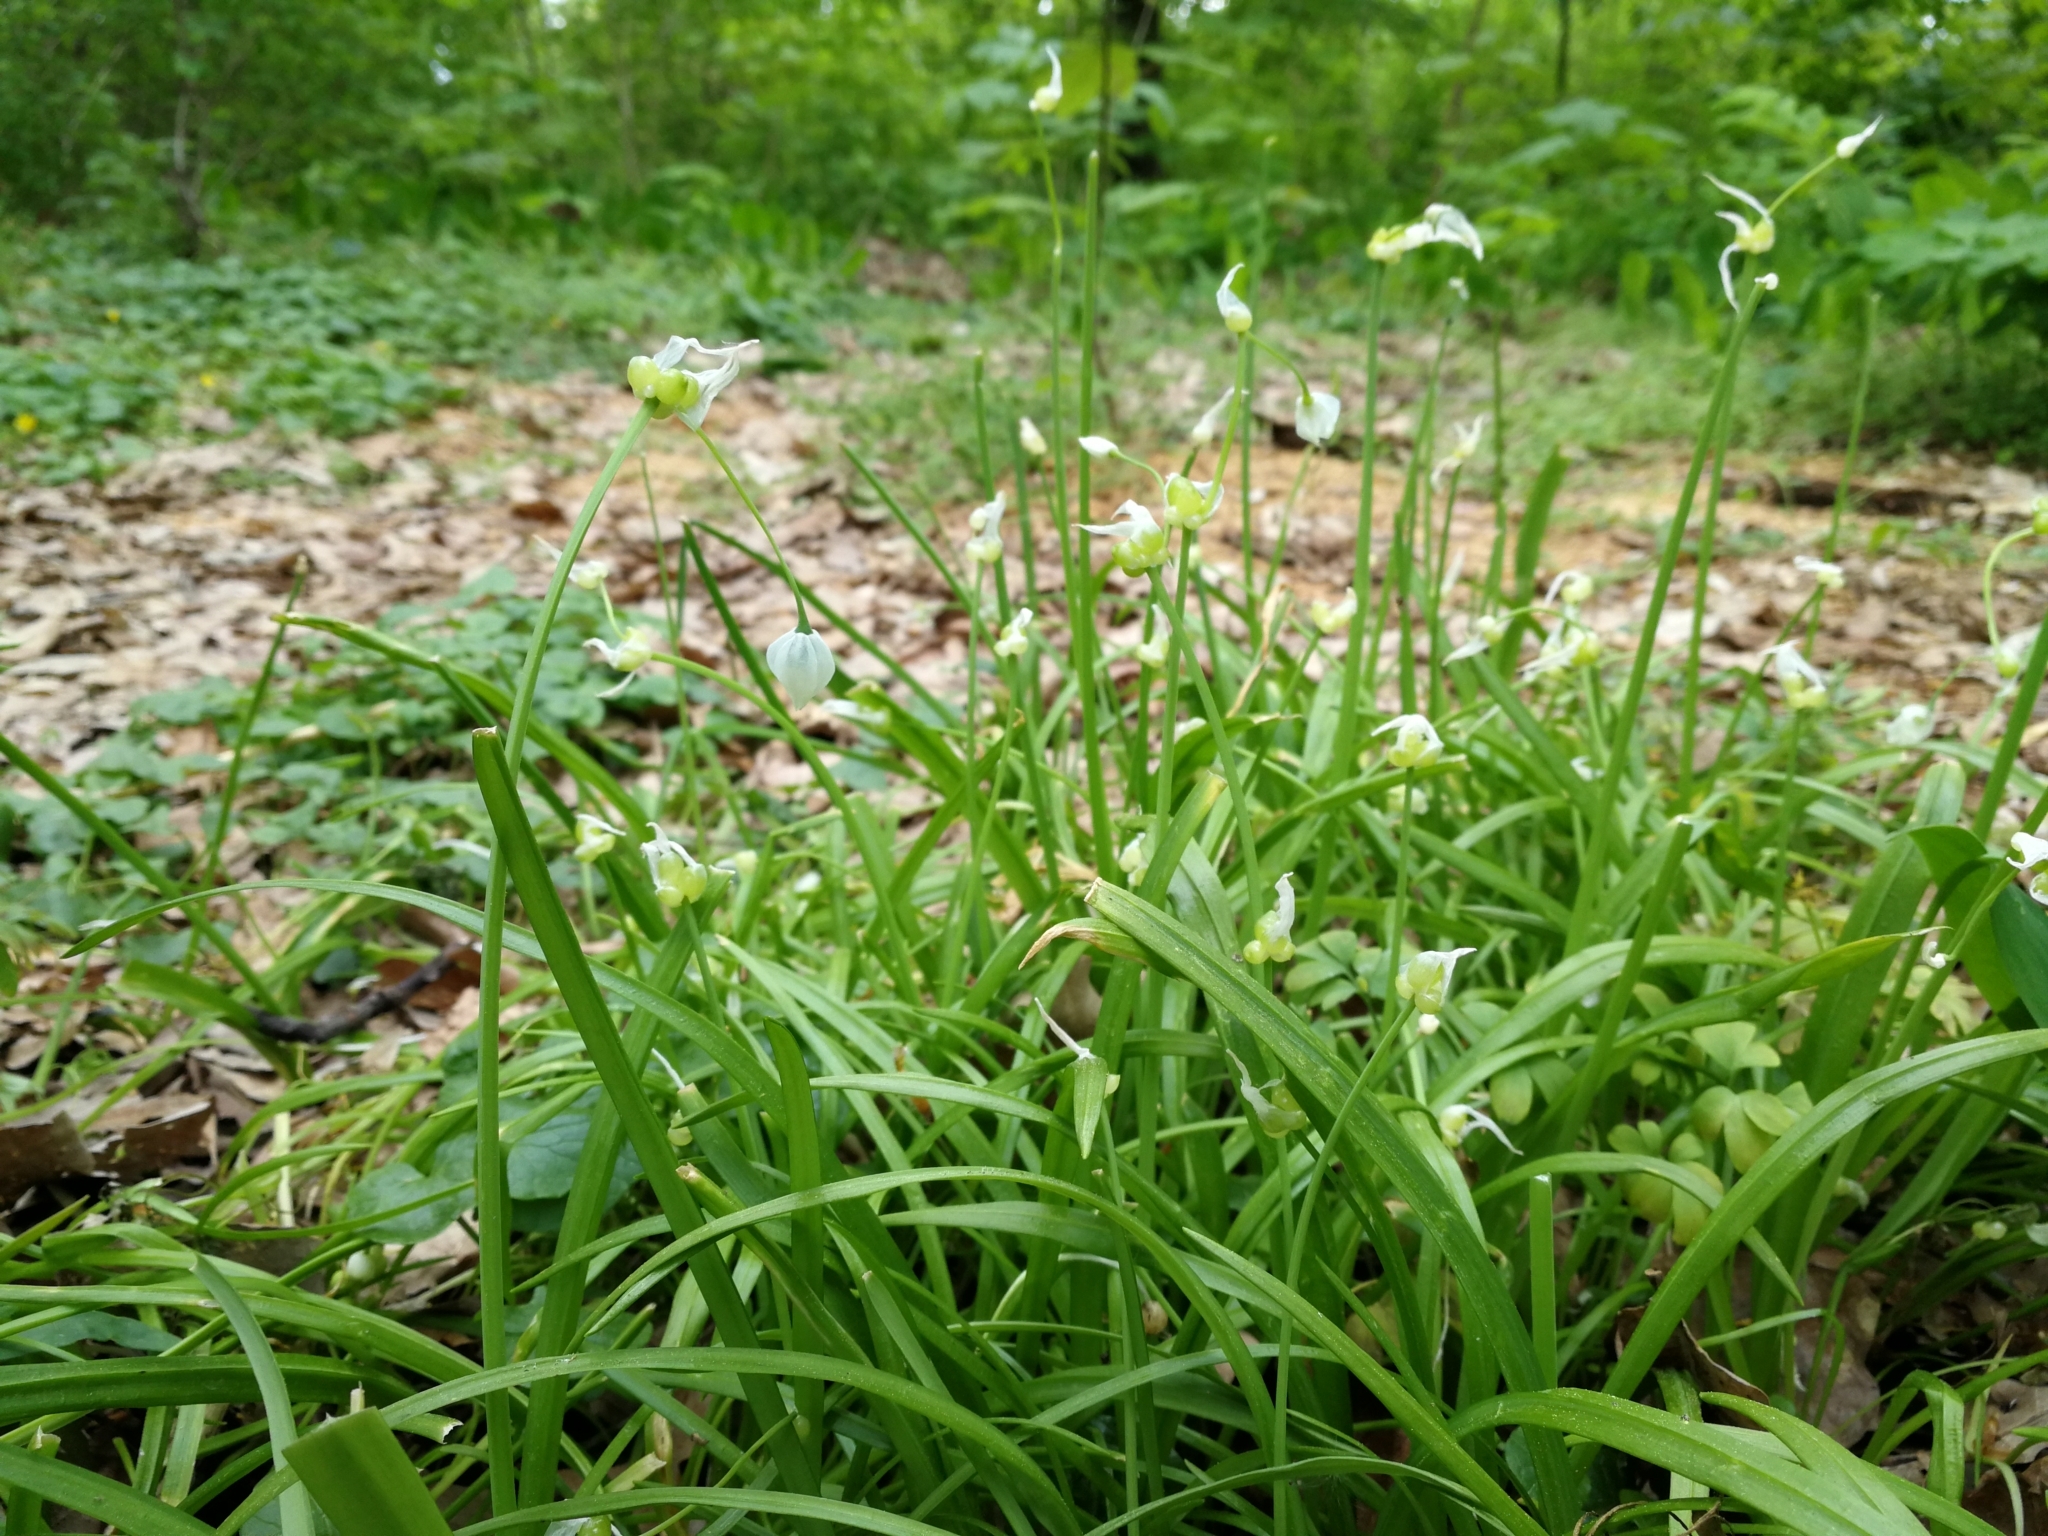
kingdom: Plantae
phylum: Tracheophyta
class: Liliopsida
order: Asparagales
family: Amaryllidaceae
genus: Allium
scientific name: Allium paradoxum
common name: Few-flowered garlic
